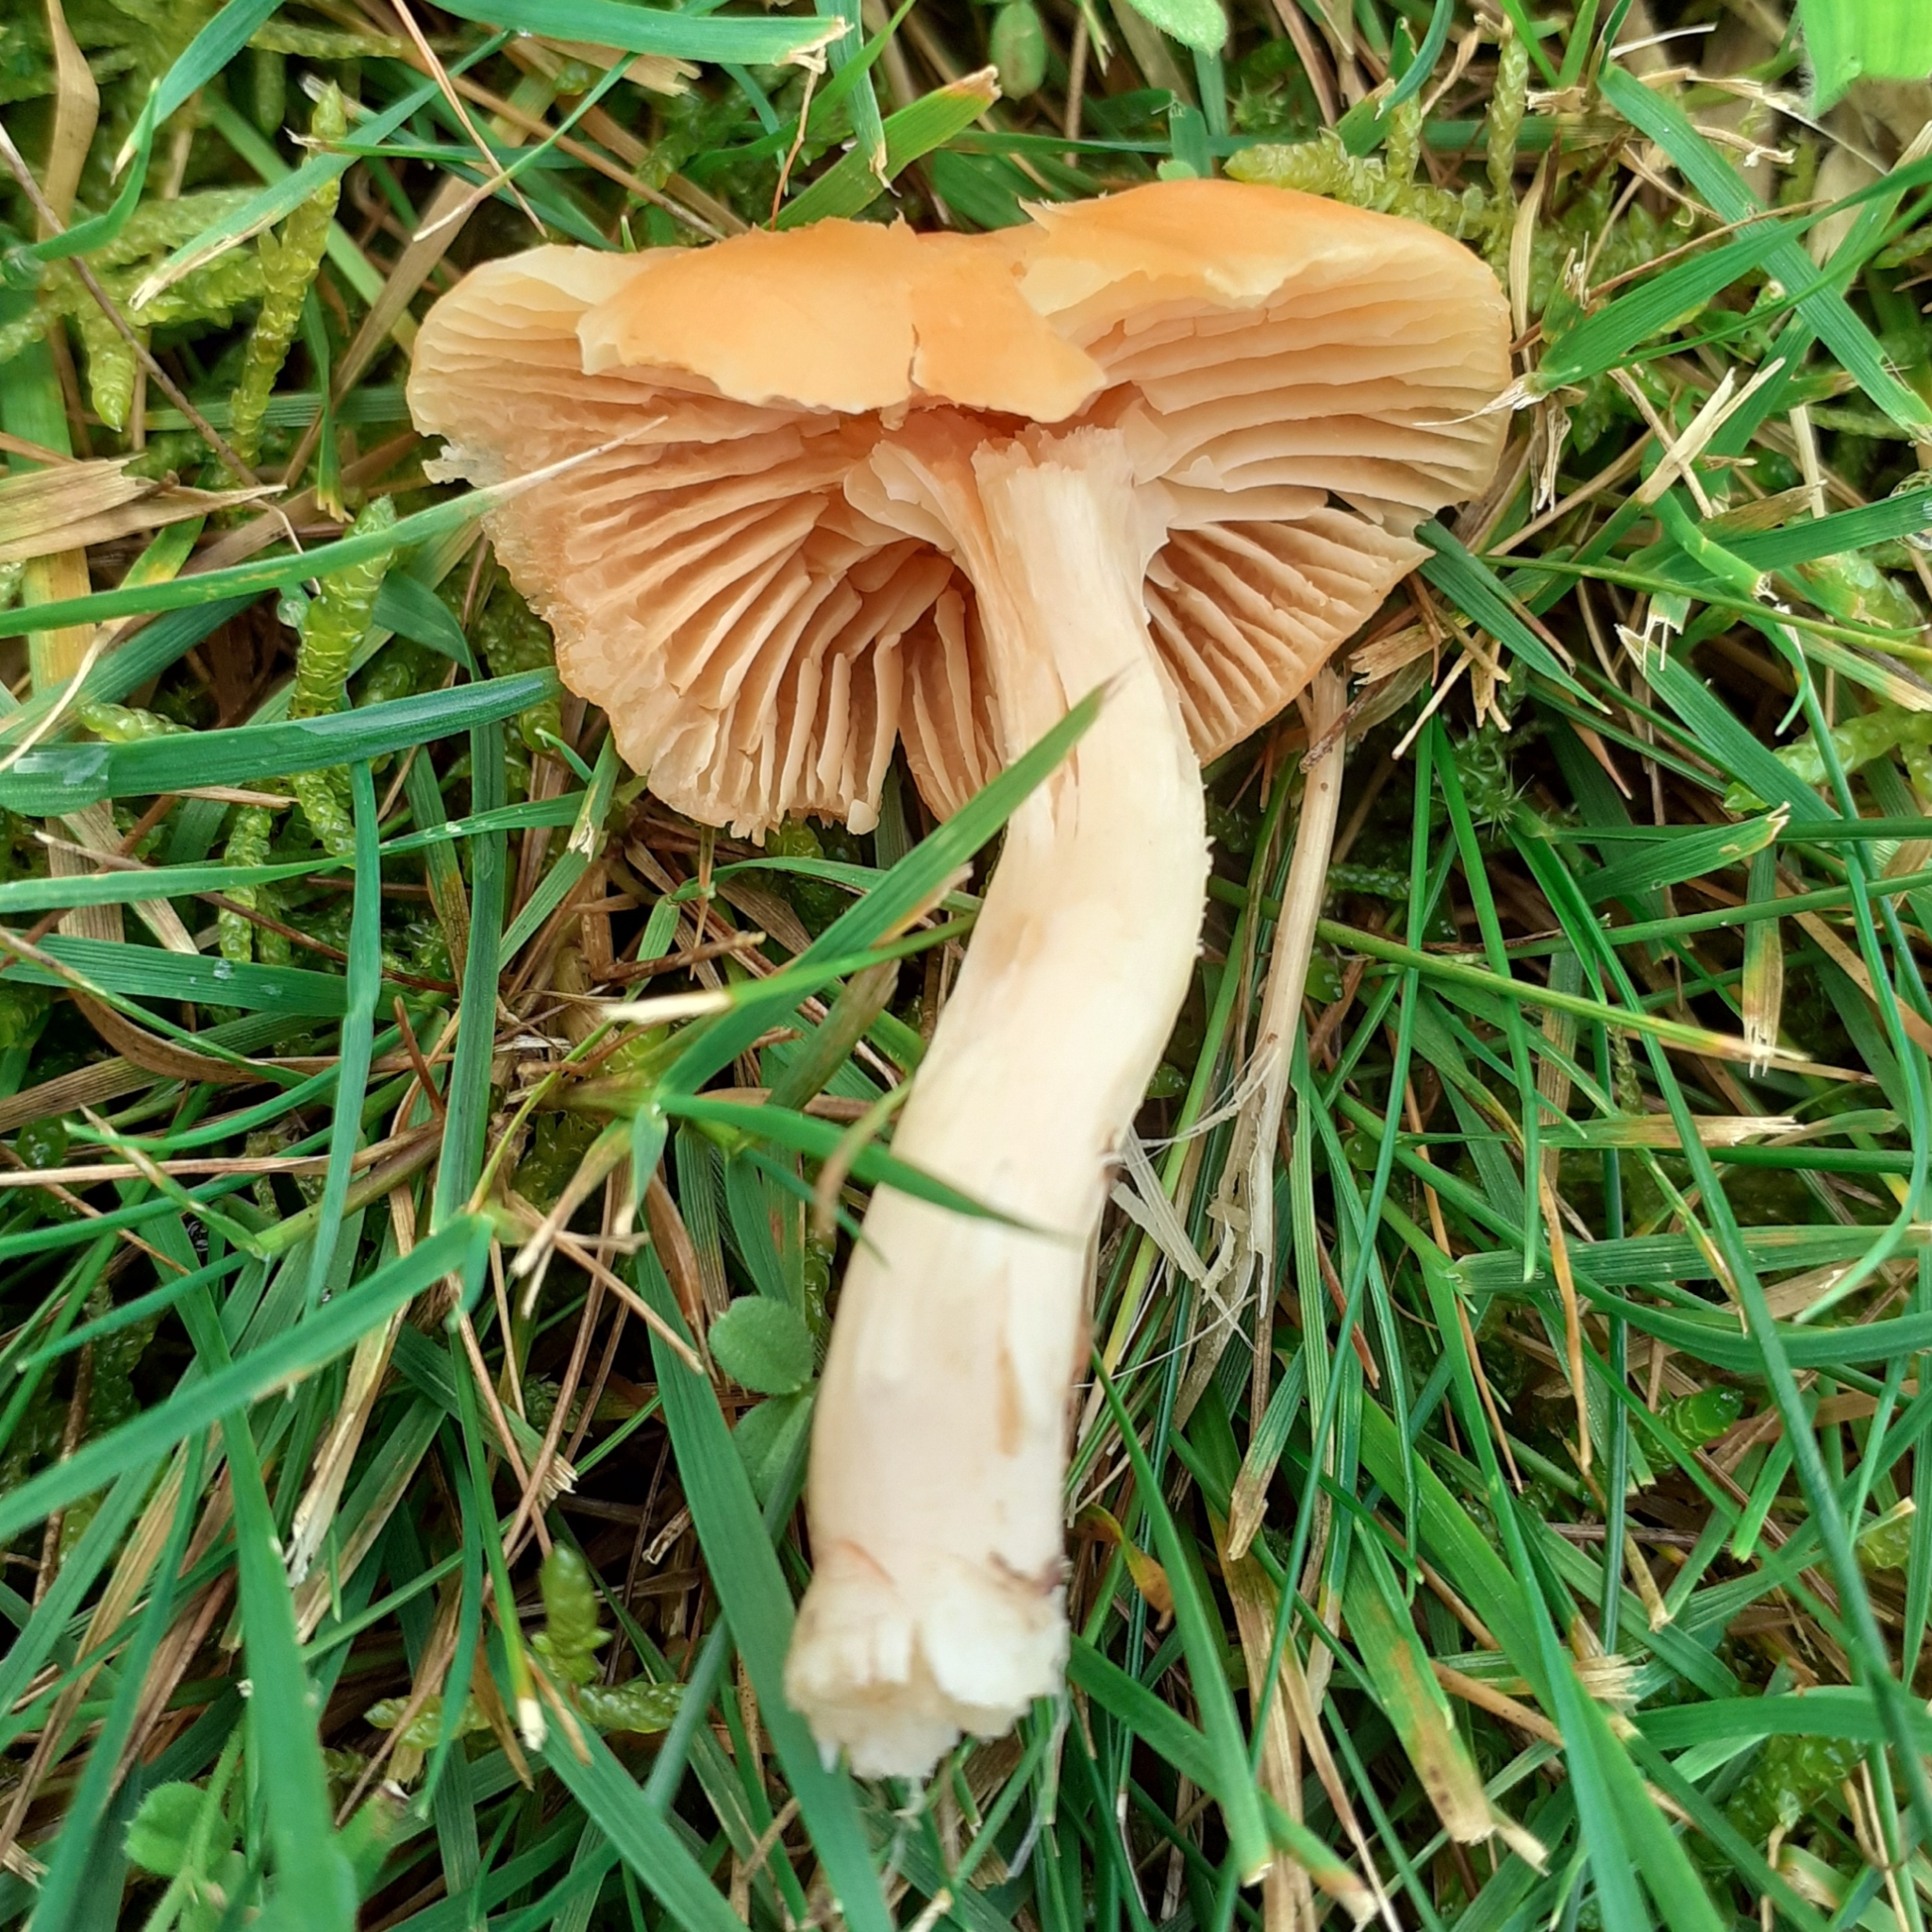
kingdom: Fungi
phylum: Basidiomycota
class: Agaricomycetes
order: Agaricales
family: Hygrophoraceae
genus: Cuphophyllus
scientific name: Cuphophyllus pratensis
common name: Meadow waxcap
